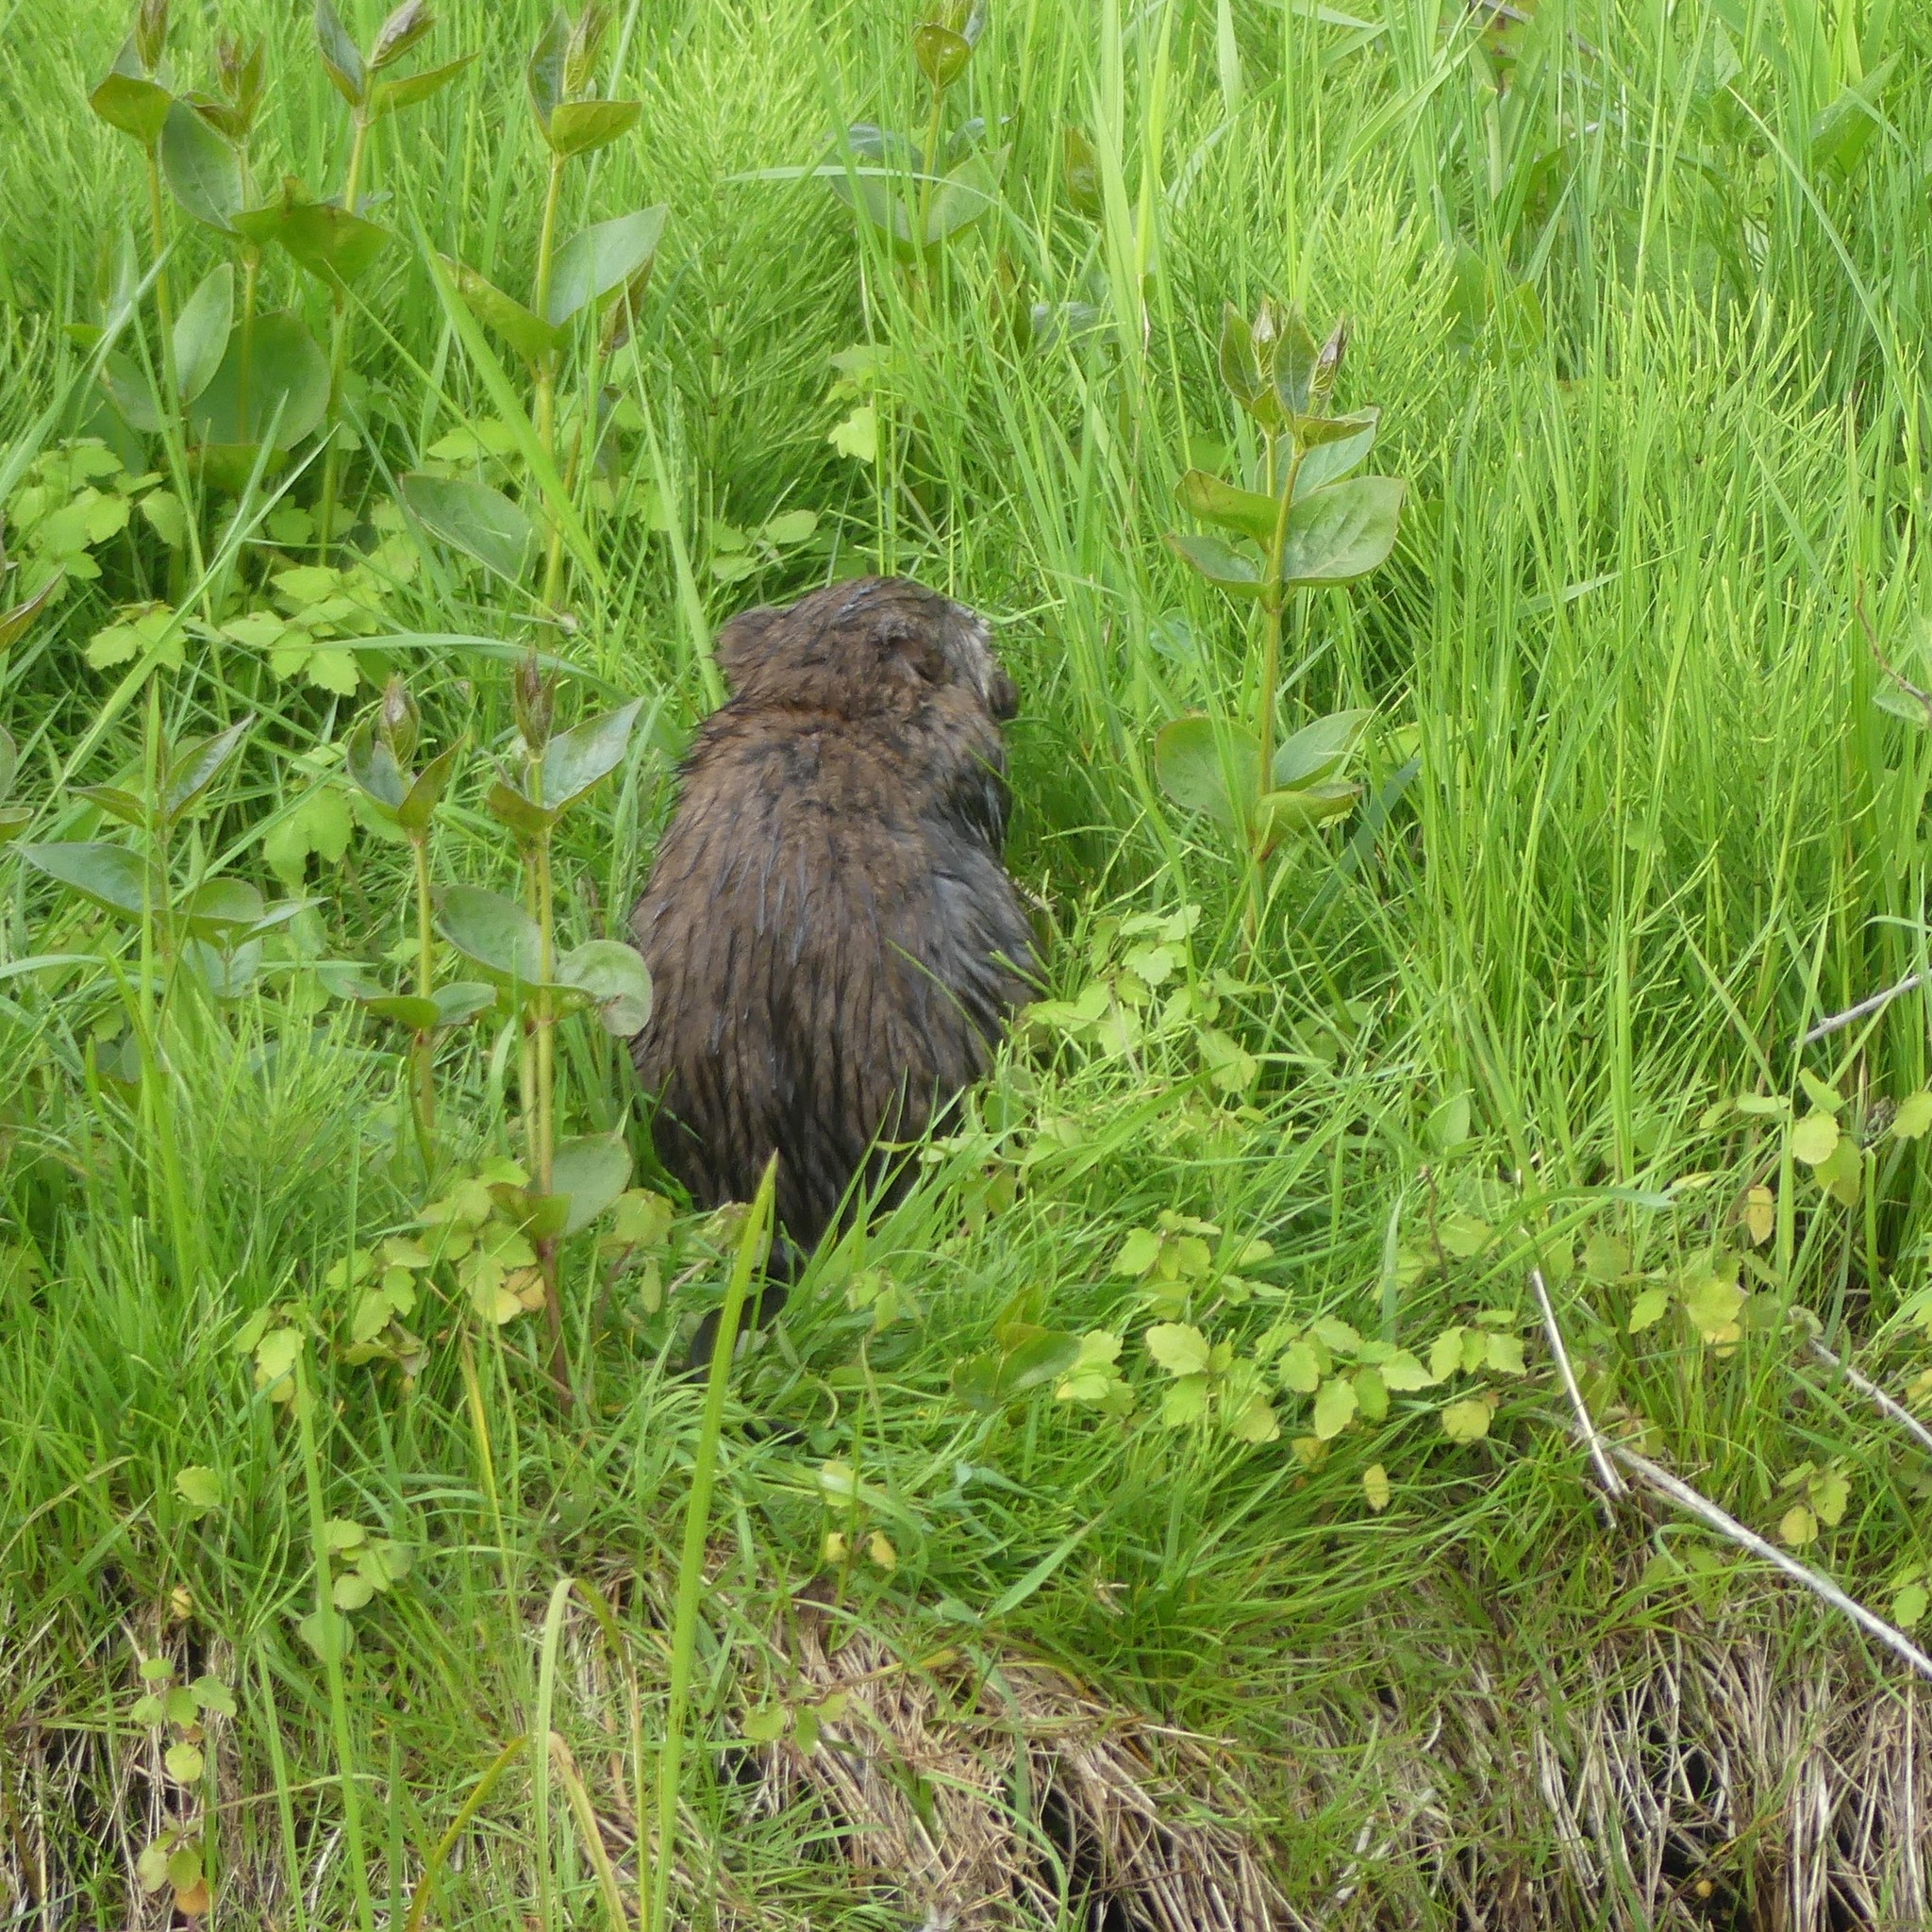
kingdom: Animalia
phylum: Chordata
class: Mammalia
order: Rodentia
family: Cricetidae
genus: Ondatra
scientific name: Ondatra zibethicus
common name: Muskrat
